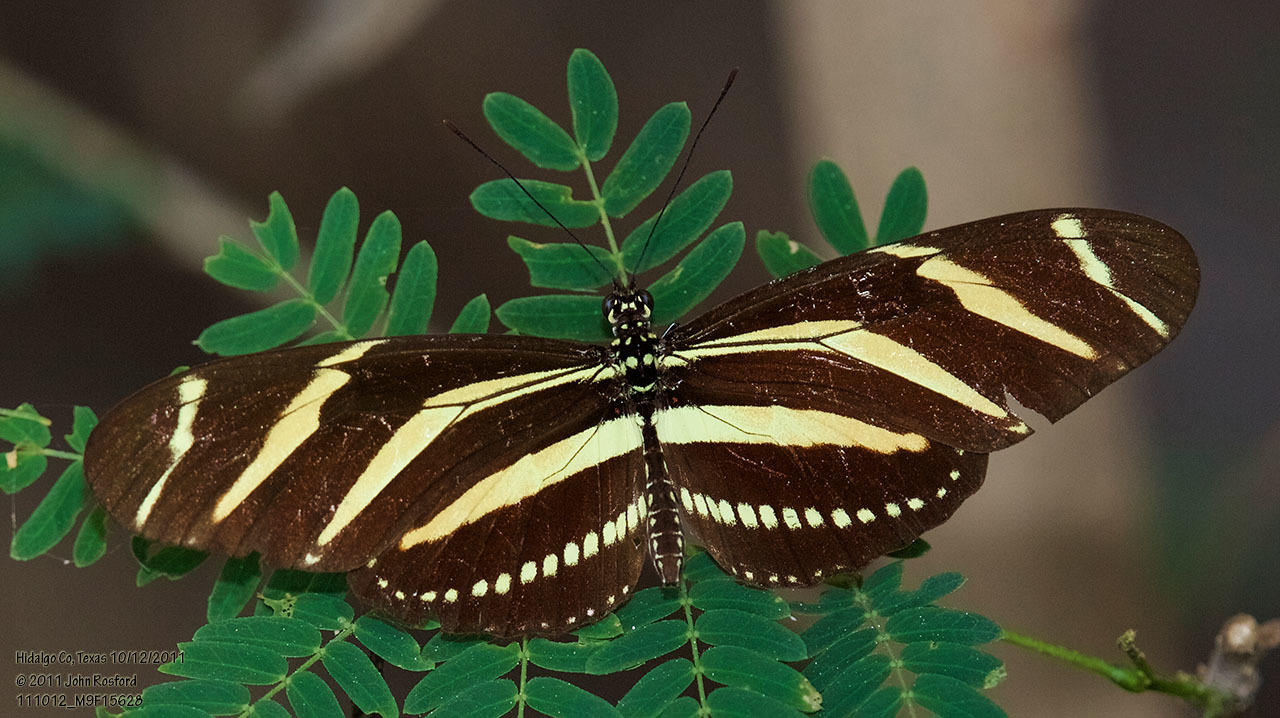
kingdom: Animalia
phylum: Arthropoda
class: Insecta
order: Lepidoptera
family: Nymphalidae
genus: Heliconius
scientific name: Heliconius charithonia
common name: Zebra long wing
